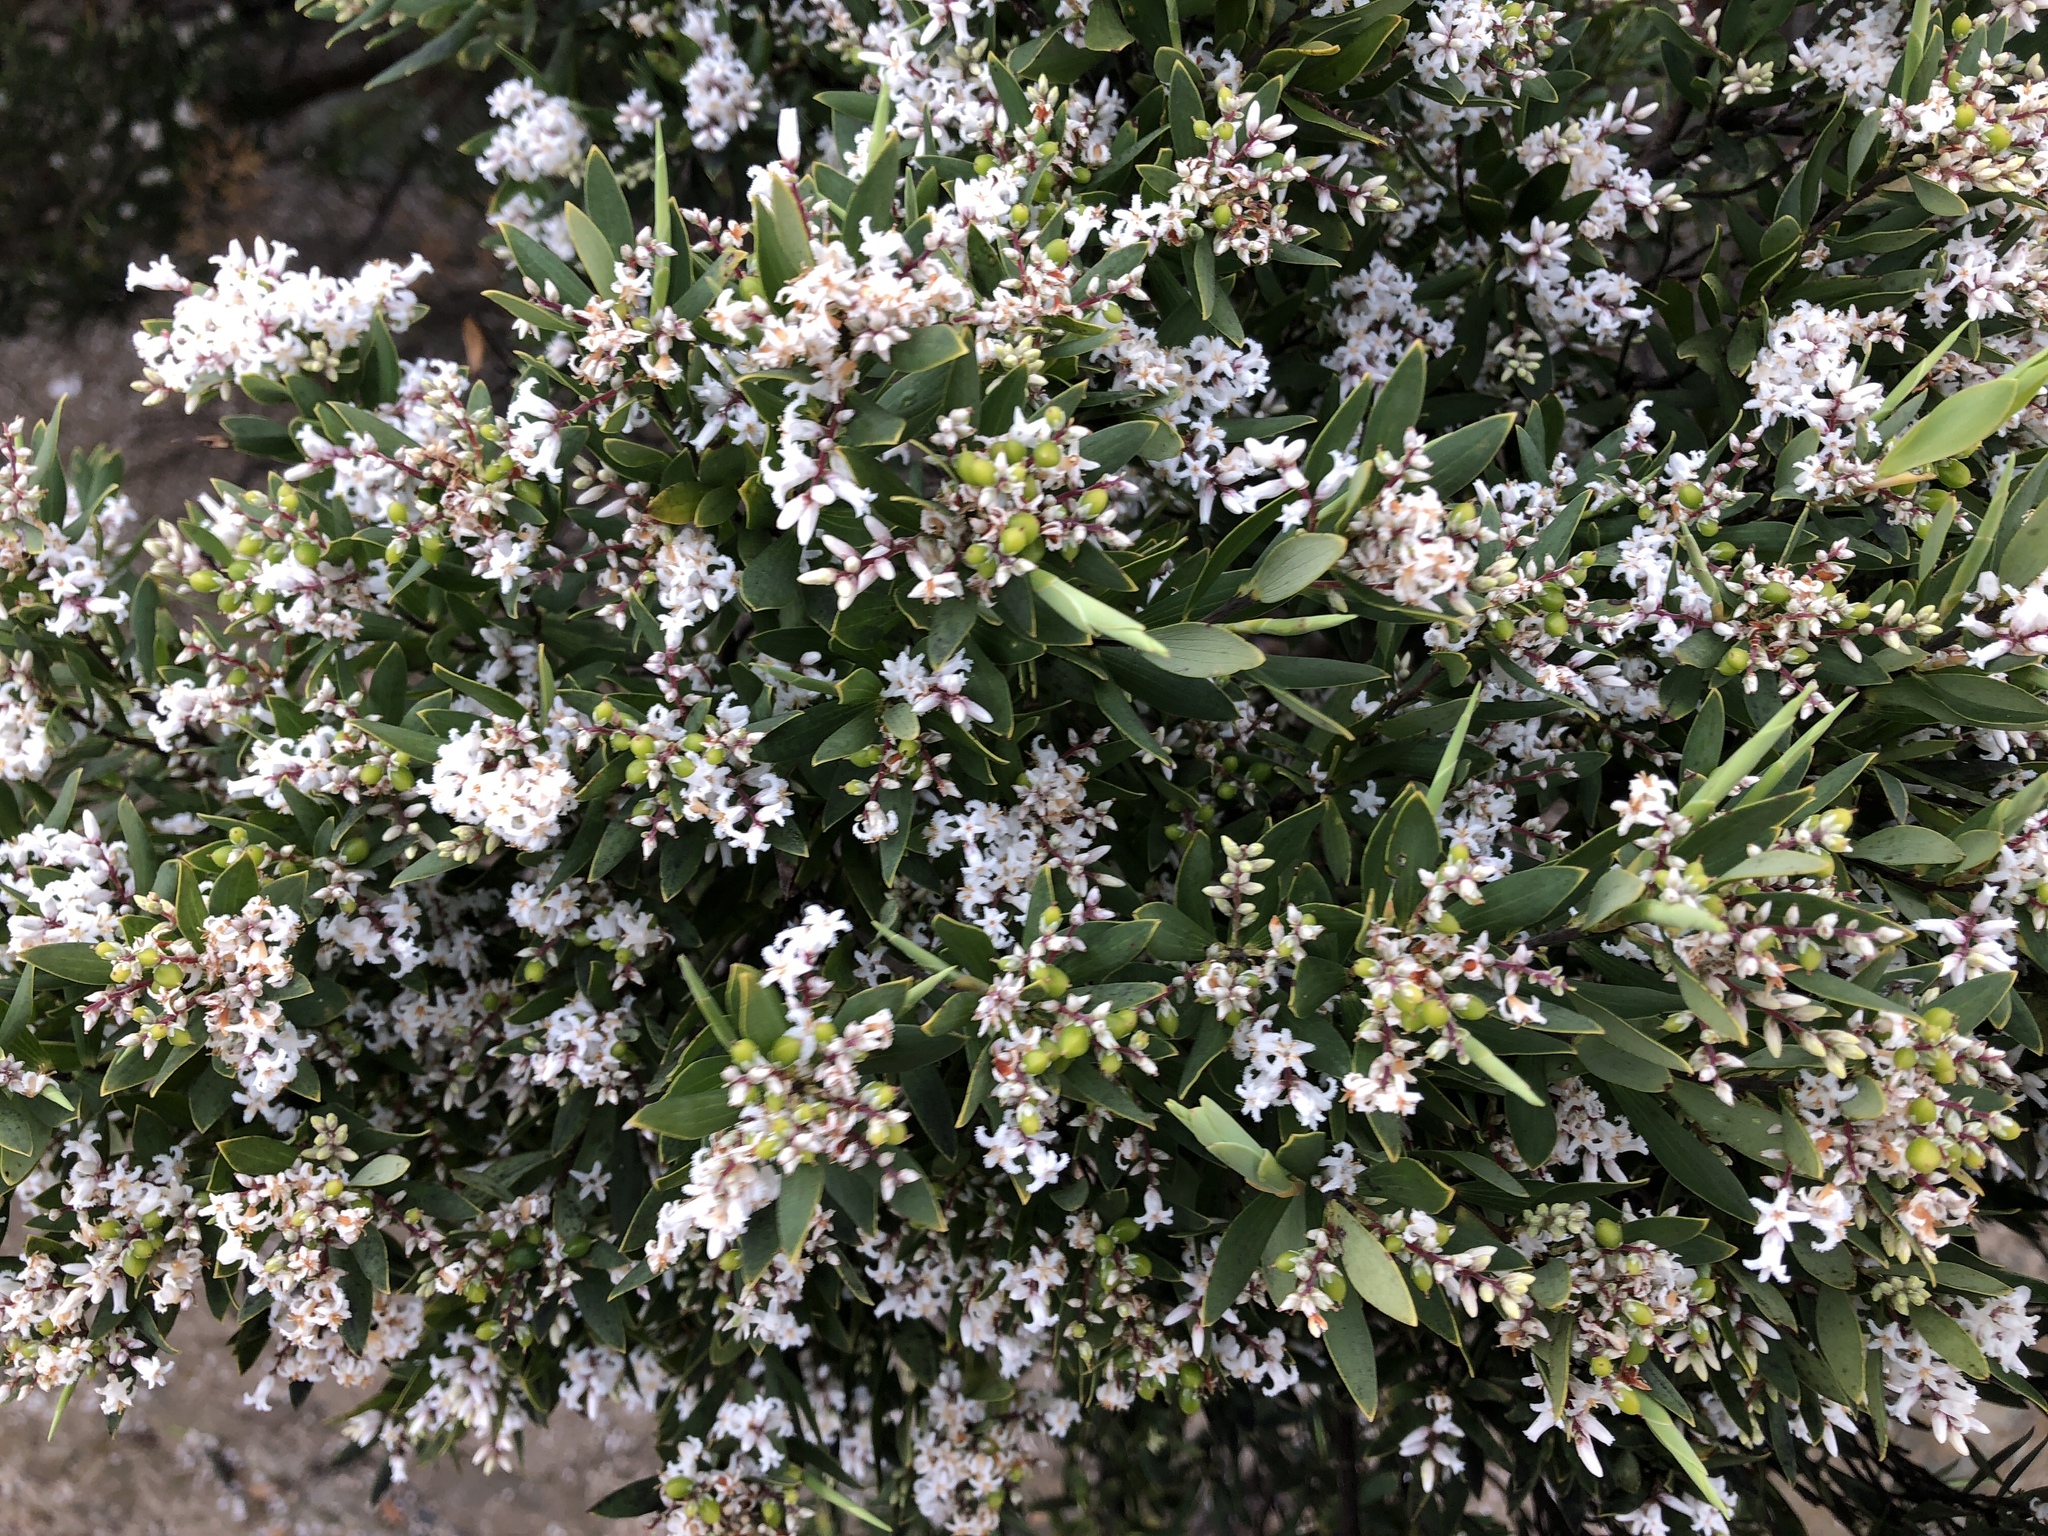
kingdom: Plantae
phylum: Tracheophyta
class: Magnoliopsida
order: Ericales
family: Ericaceae
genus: Leptecophylla
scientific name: Leptecophylla parvifolia
